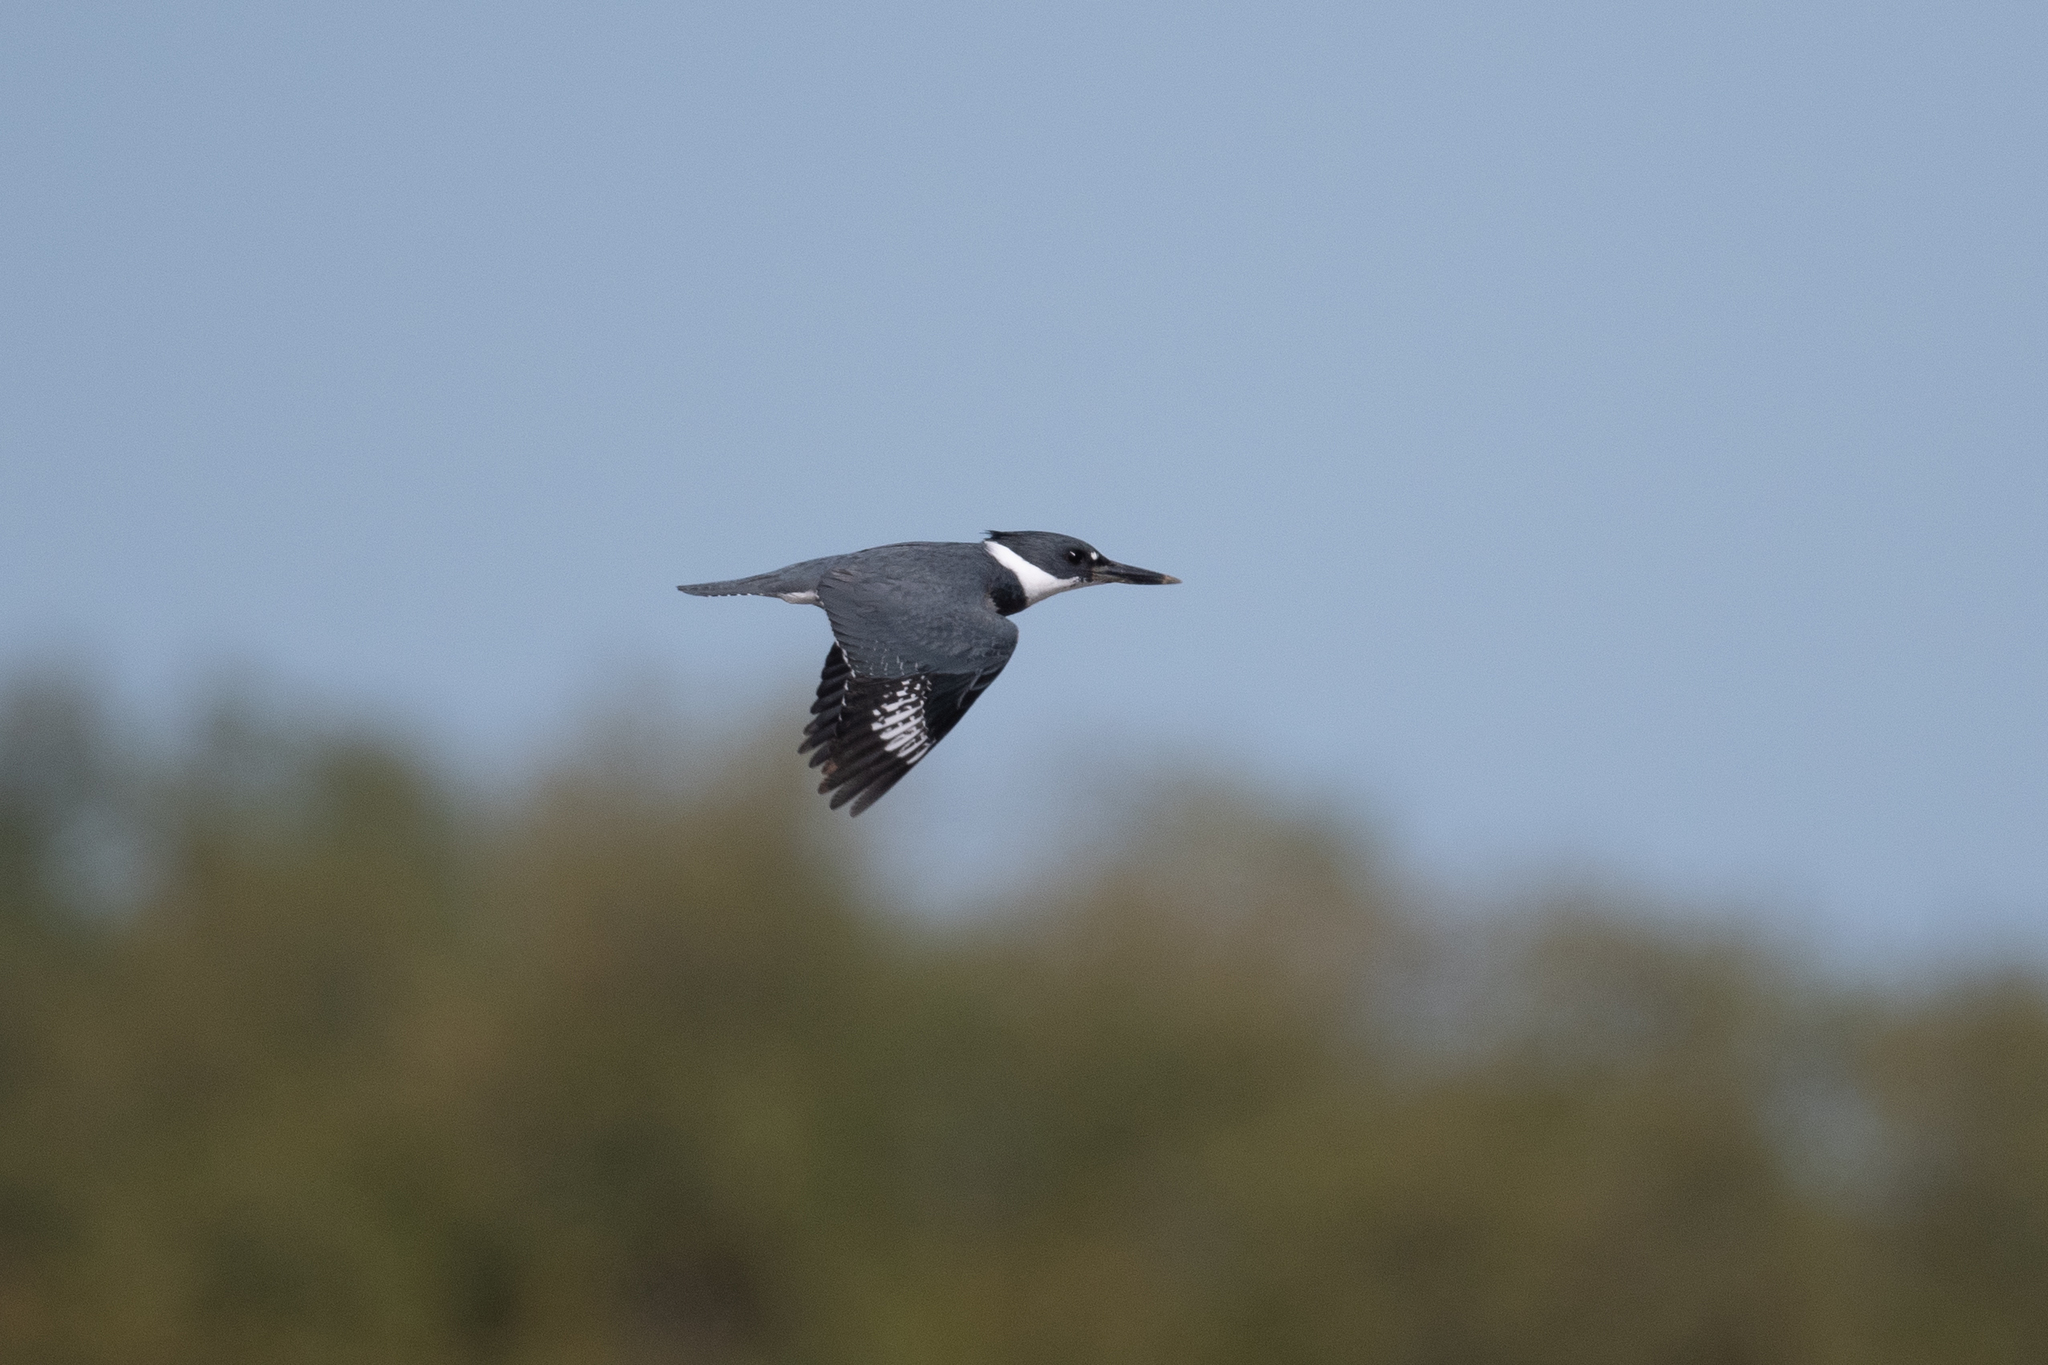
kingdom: Animalia
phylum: Chordata
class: Aves
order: Coraciiformes
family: Alcedinidae
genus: Megaceryle
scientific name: Megaceryle alcyon
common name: Belted kingfisher
